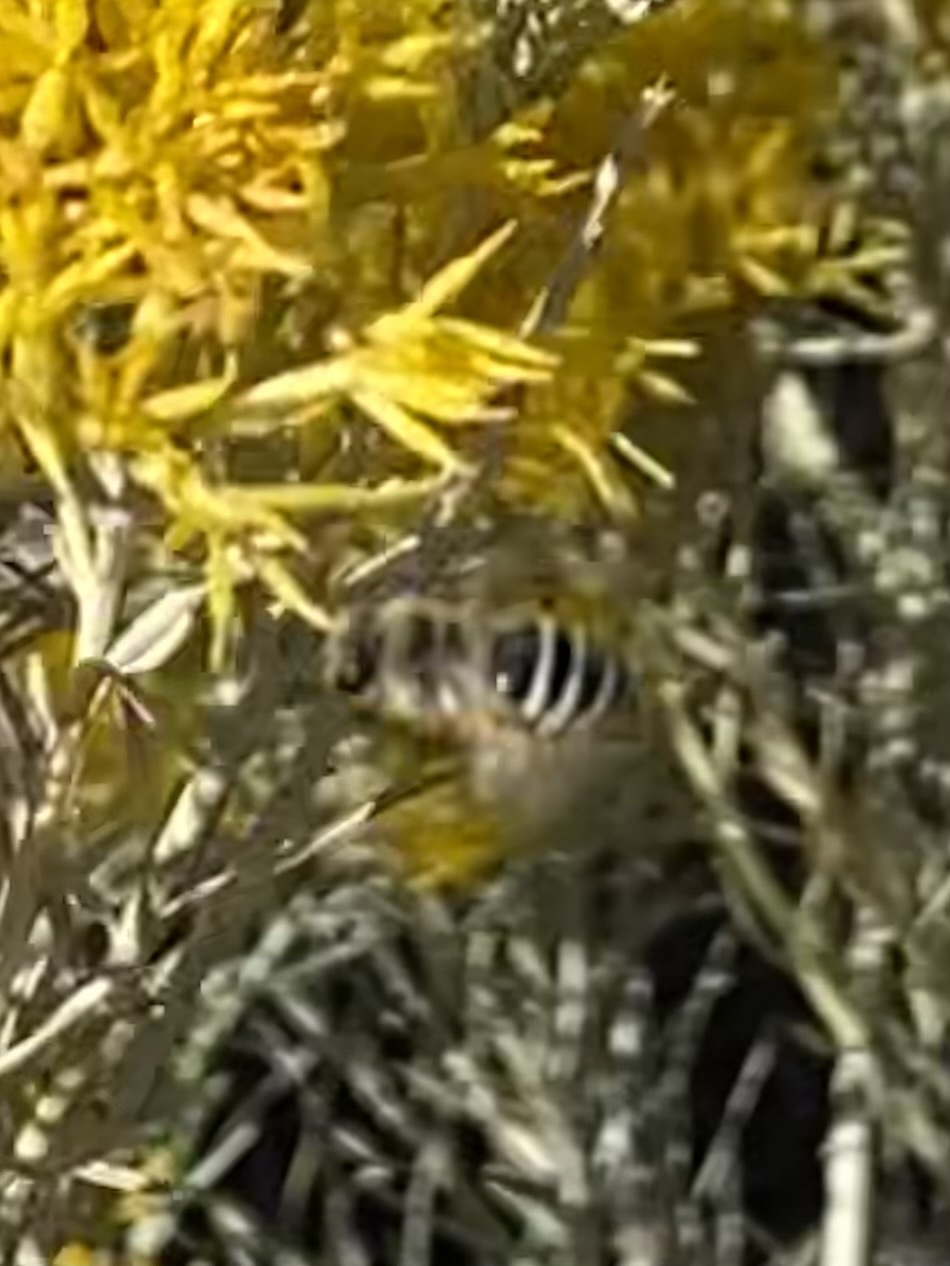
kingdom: Animalia
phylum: Arthropoda
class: Insecta
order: Hymenoptera
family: Colletidae
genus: Colletes
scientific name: Colletes
